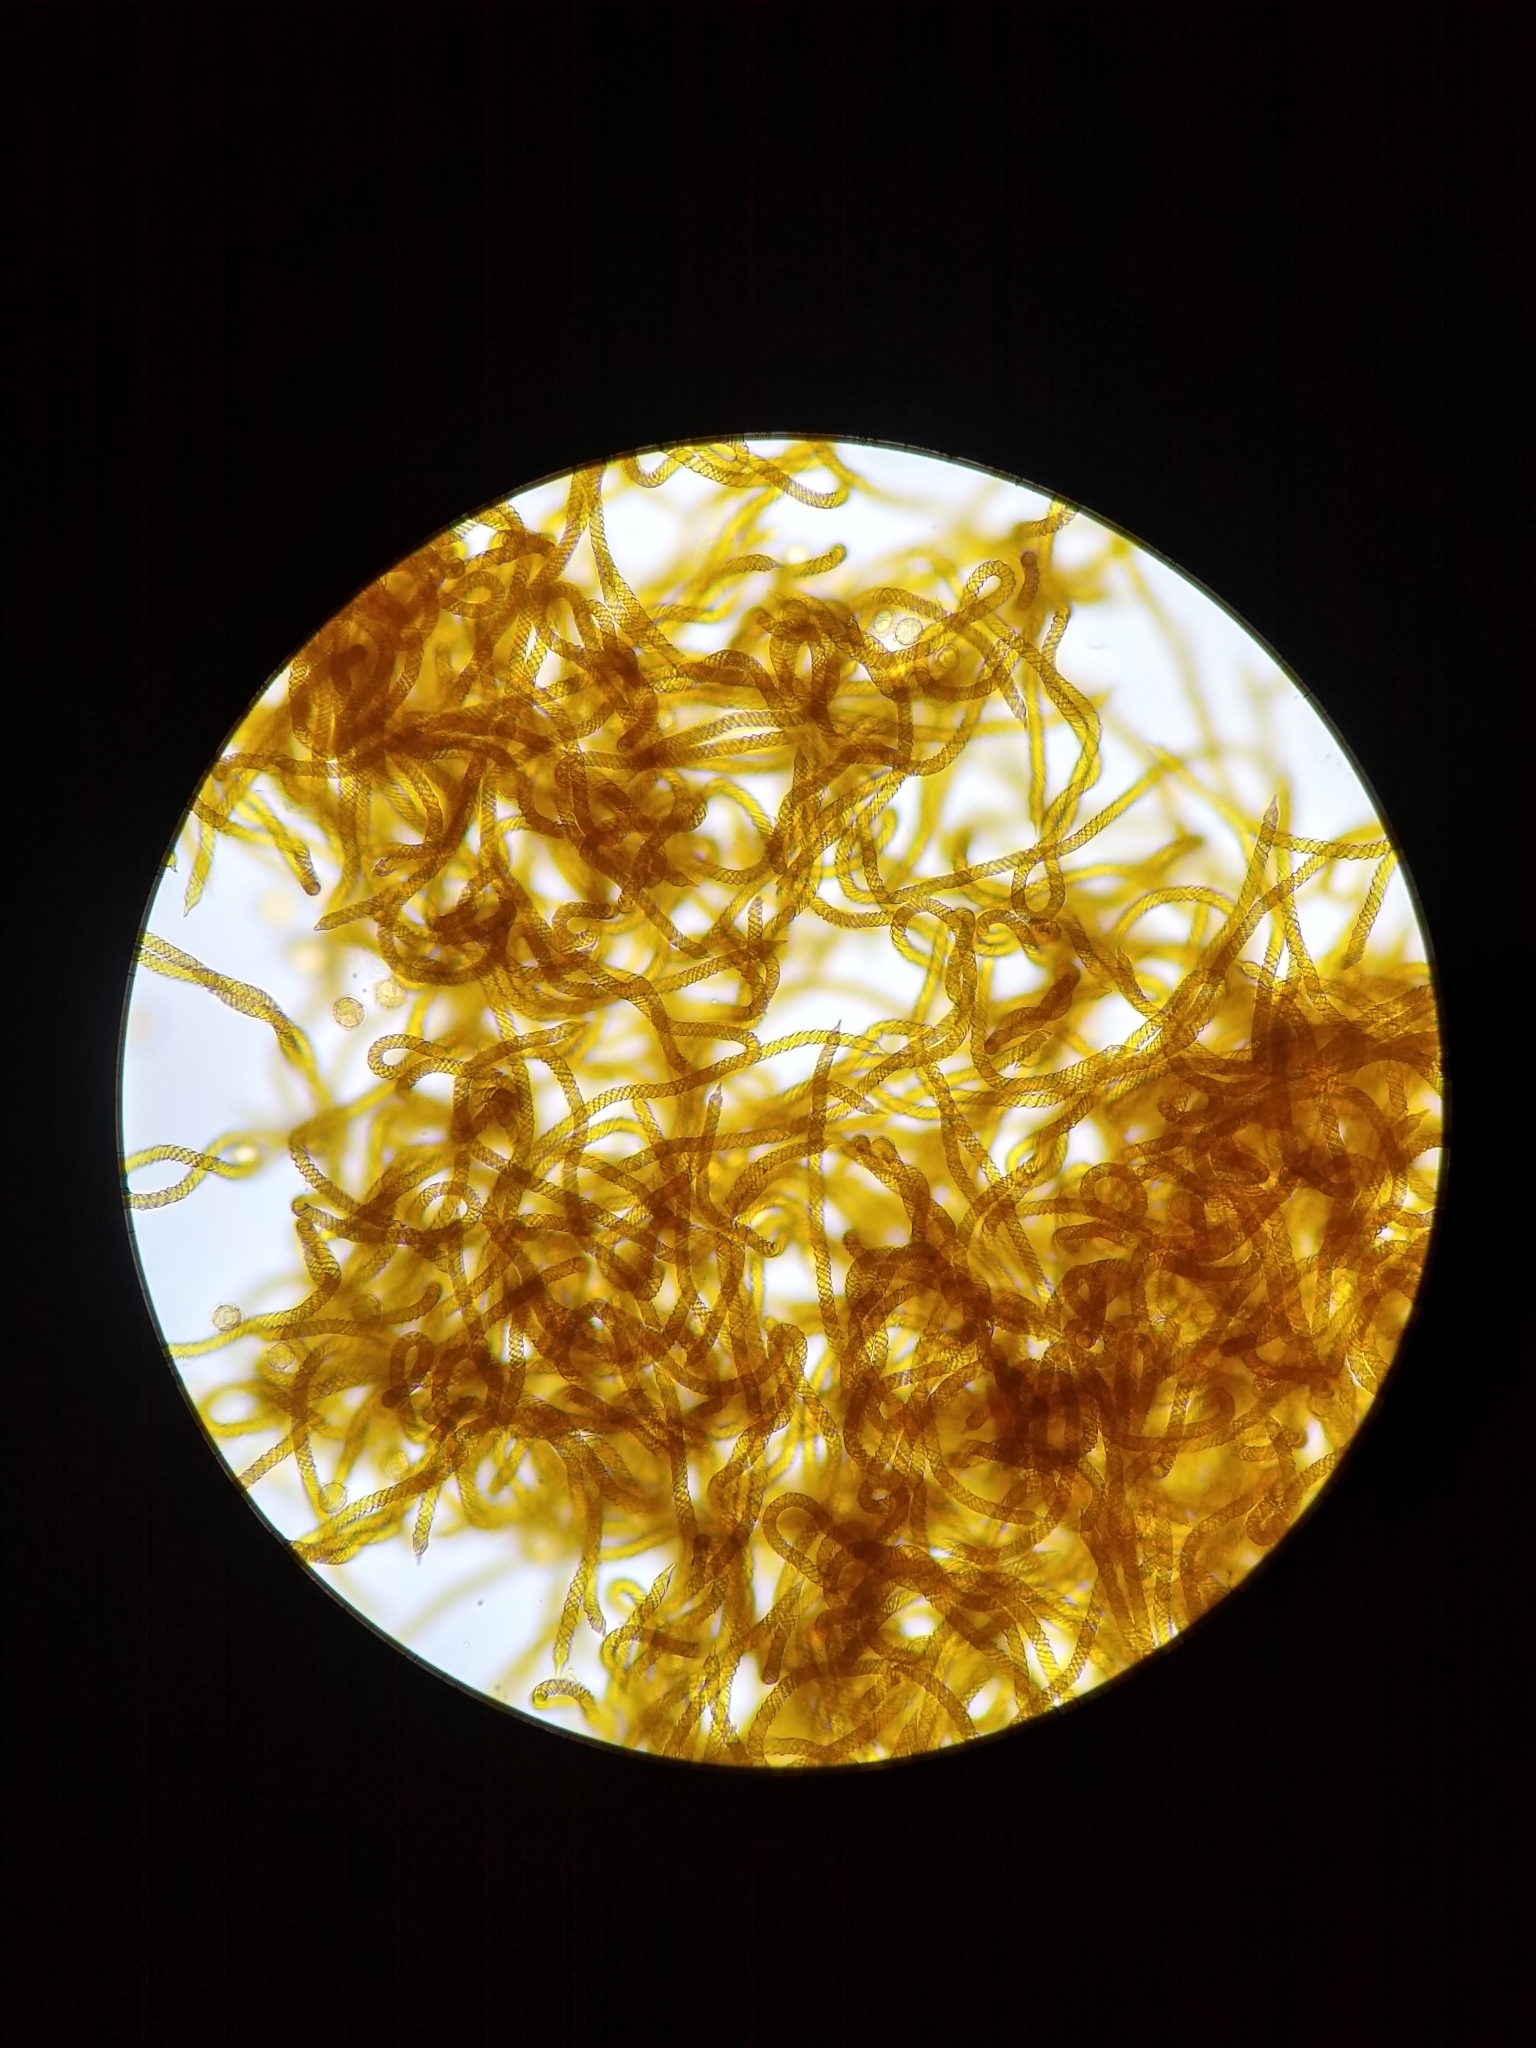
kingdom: Protozoa
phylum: Mycetozoa
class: Myxomycetes
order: Trichiales
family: Trichiaceae
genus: Oligonema
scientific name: Oligonema affine
